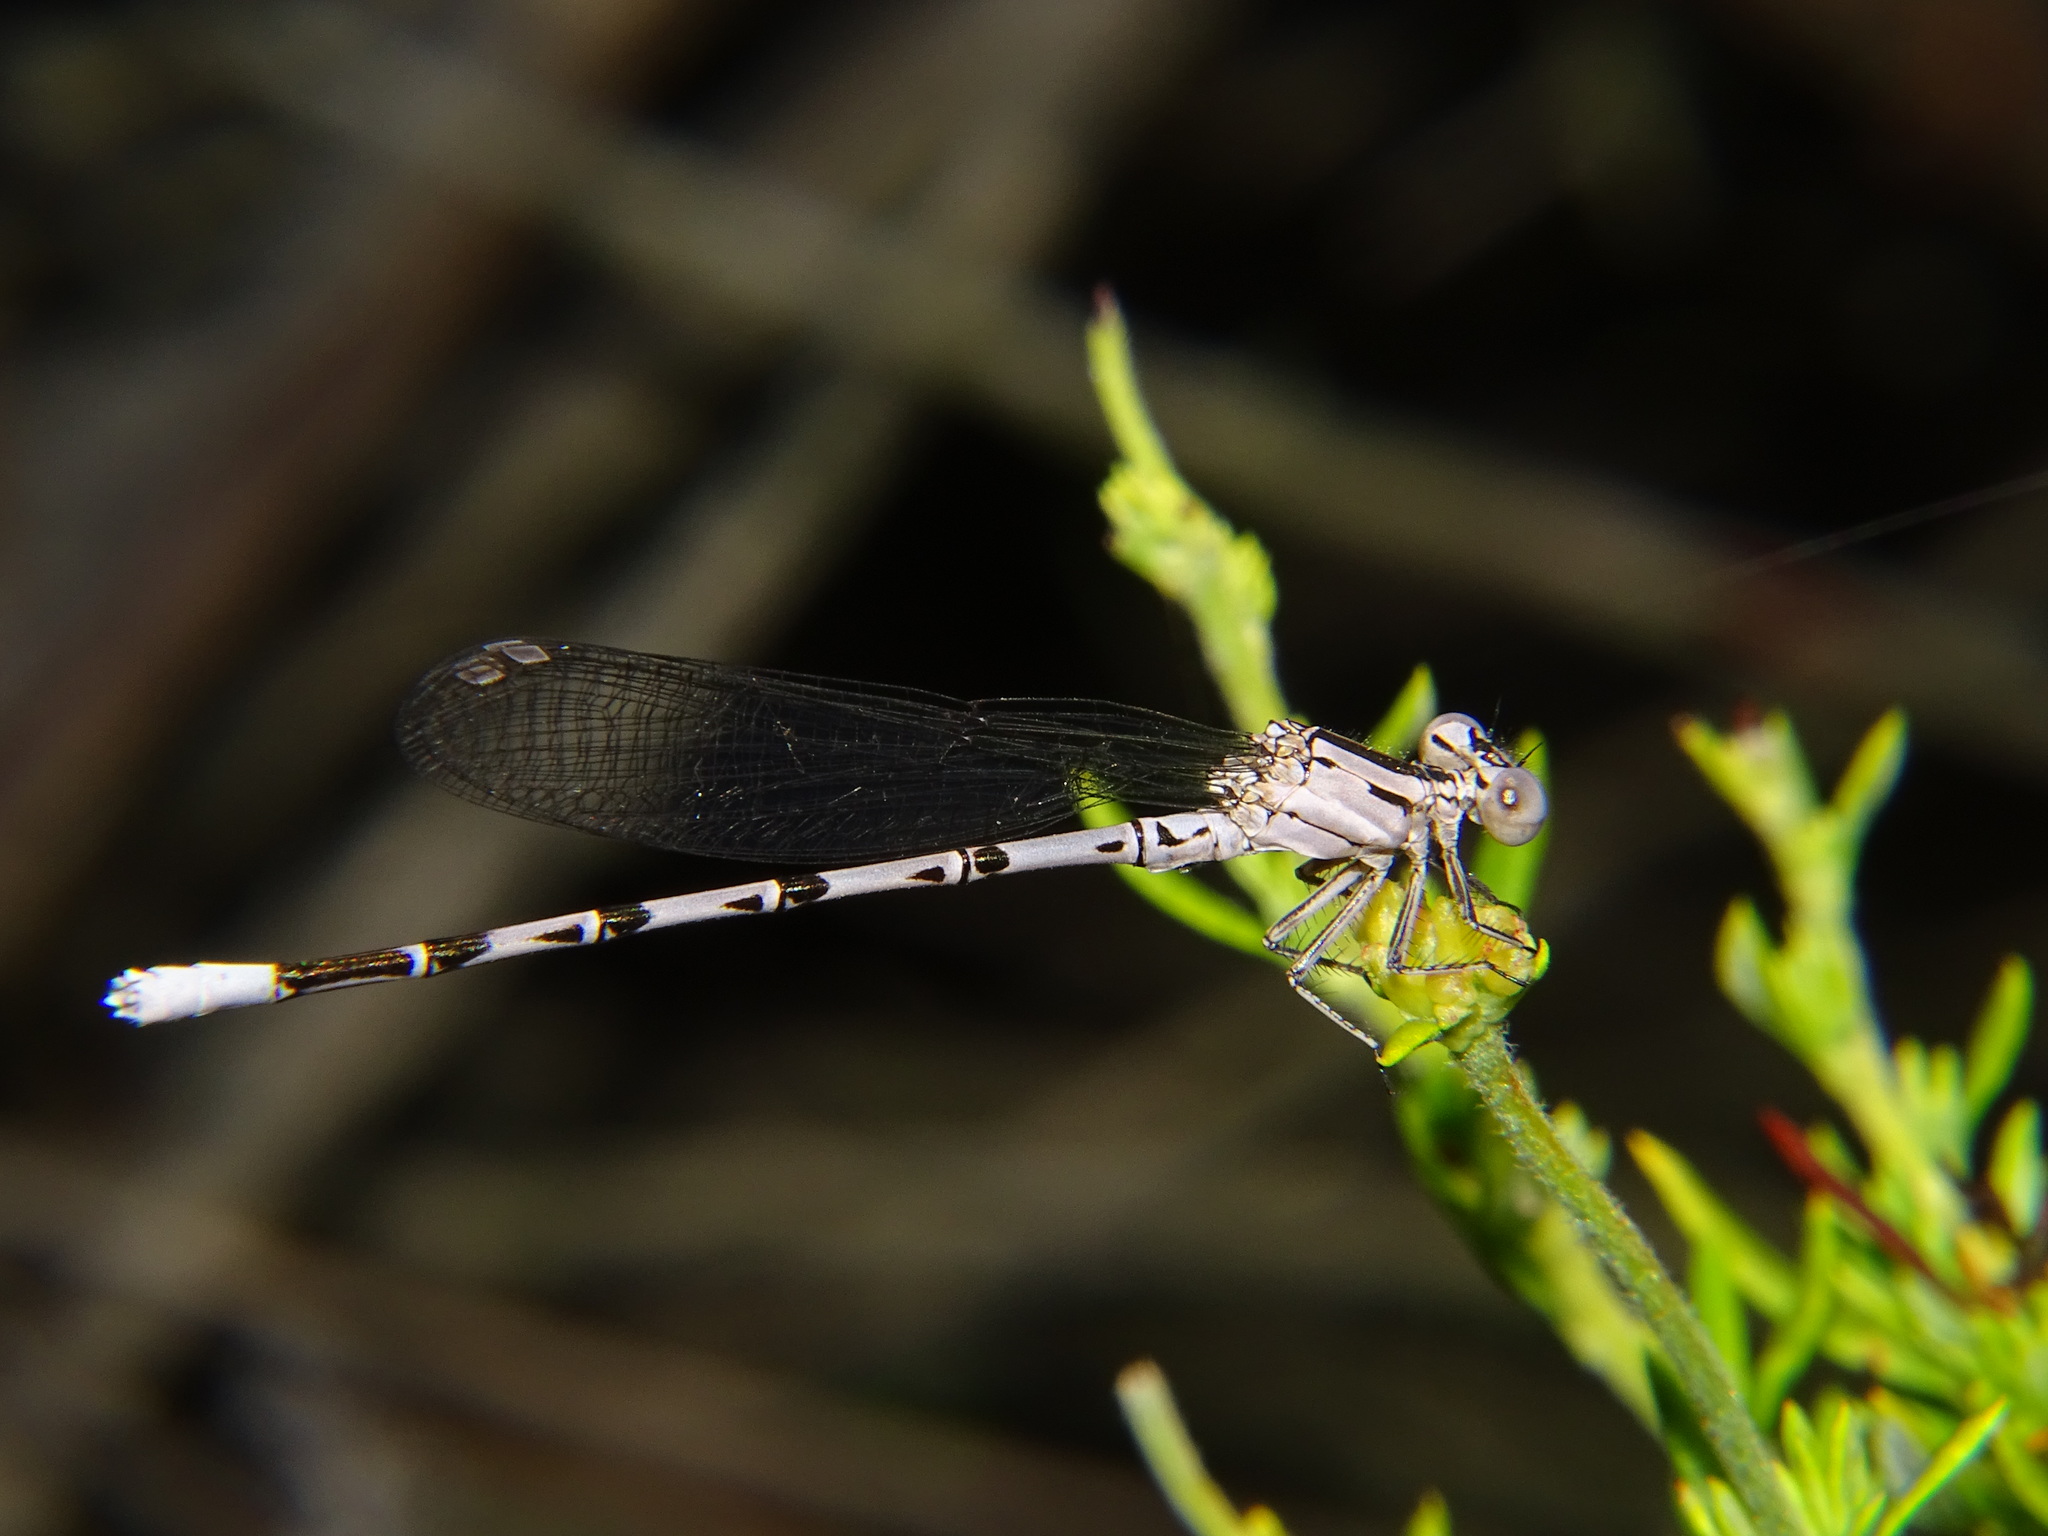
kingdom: Animalia
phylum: Arthropoda
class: Insecta
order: Odonata
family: Coenagrionidae
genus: Argia
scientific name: Argia vivida
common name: Vivid dancer
